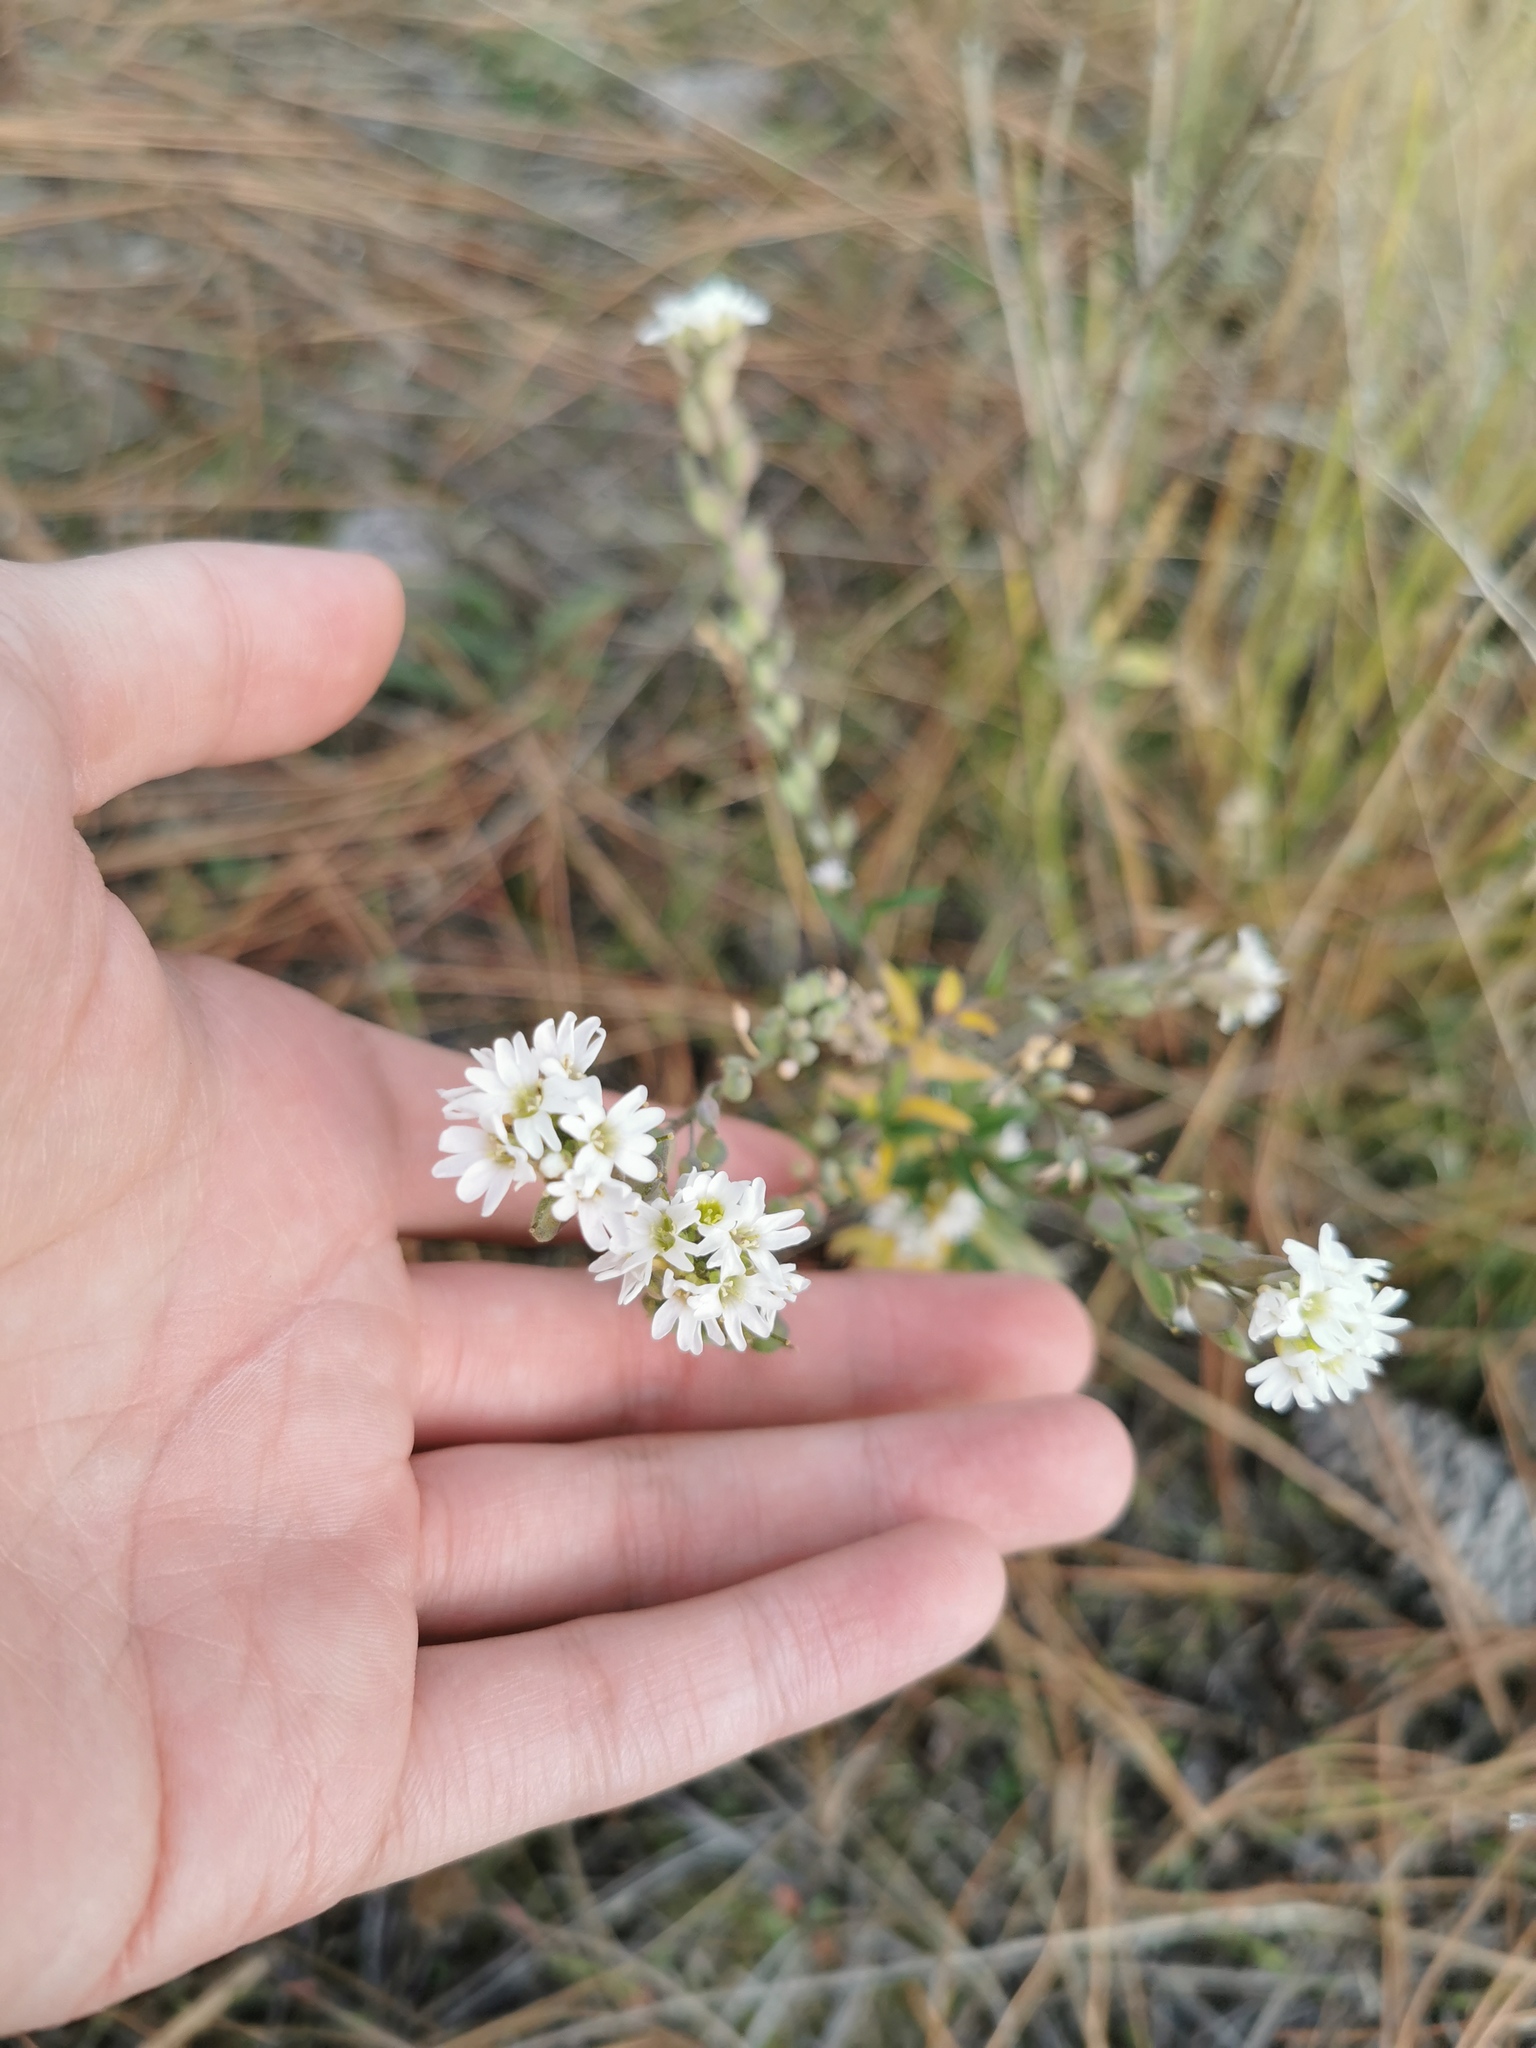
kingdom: Plantae
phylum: Tracheophyta
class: Magnoliopsida
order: Brassicales
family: Brassicaceae
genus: Berteroa
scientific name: Berteroa incana
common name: Hoary alison
